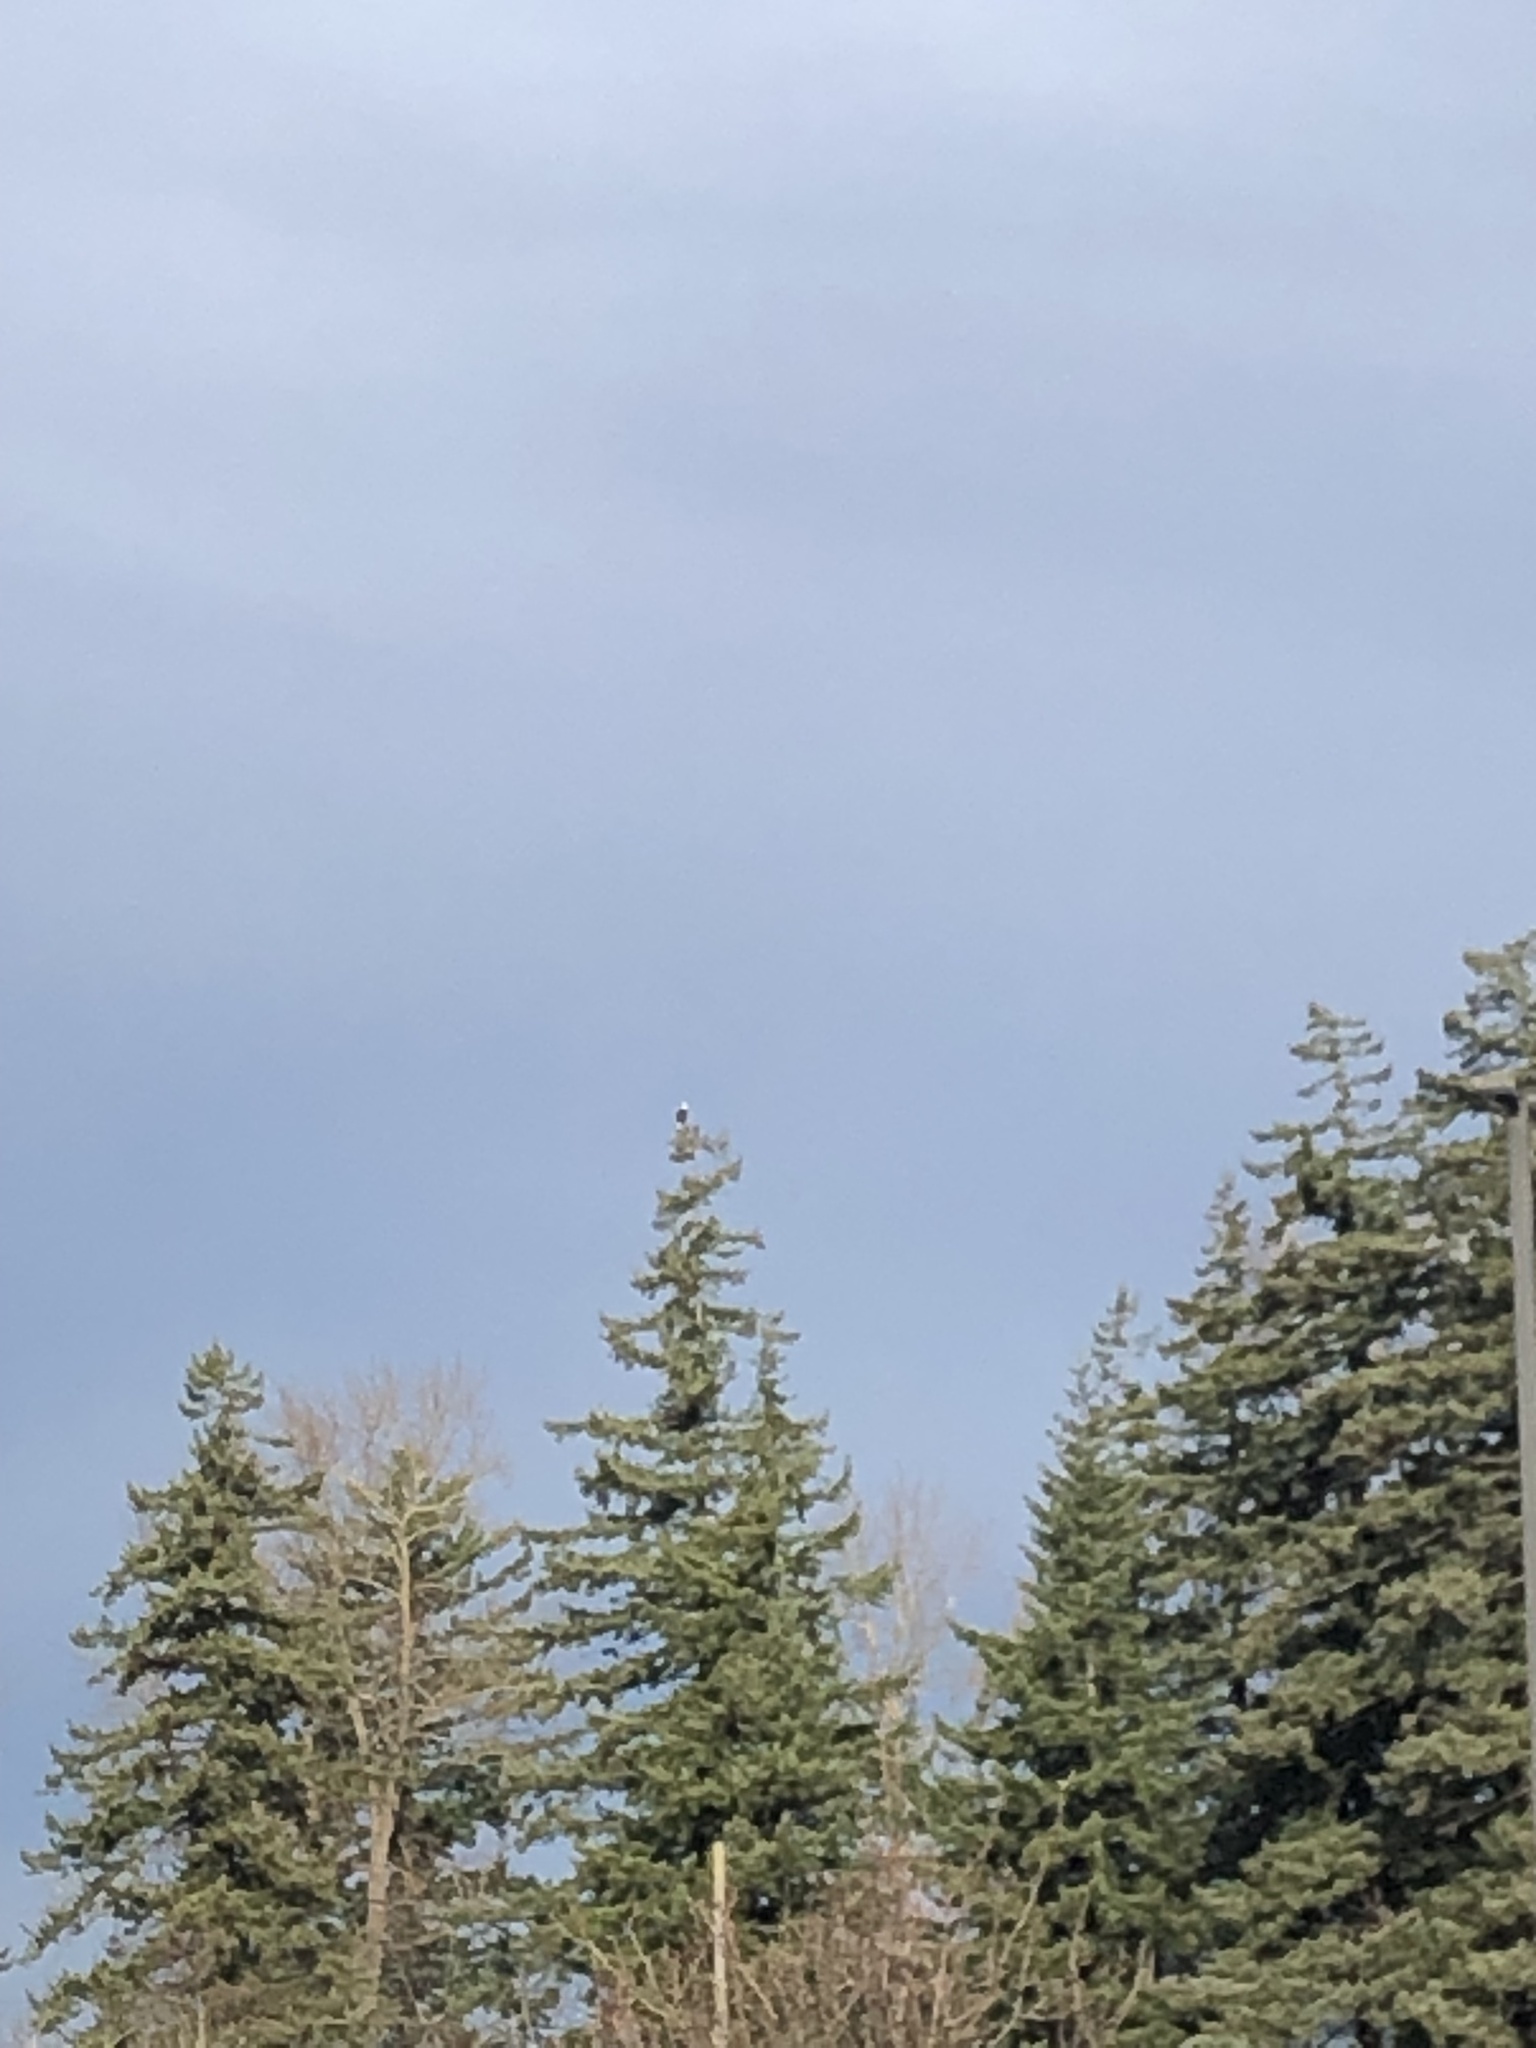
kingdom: Animalia
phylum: Chordata
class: Aves
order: Accipitriformes
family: Accipitridae
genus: Haliaeetus
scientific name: Haliaeetus leucocephalus
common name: Bald eagle
